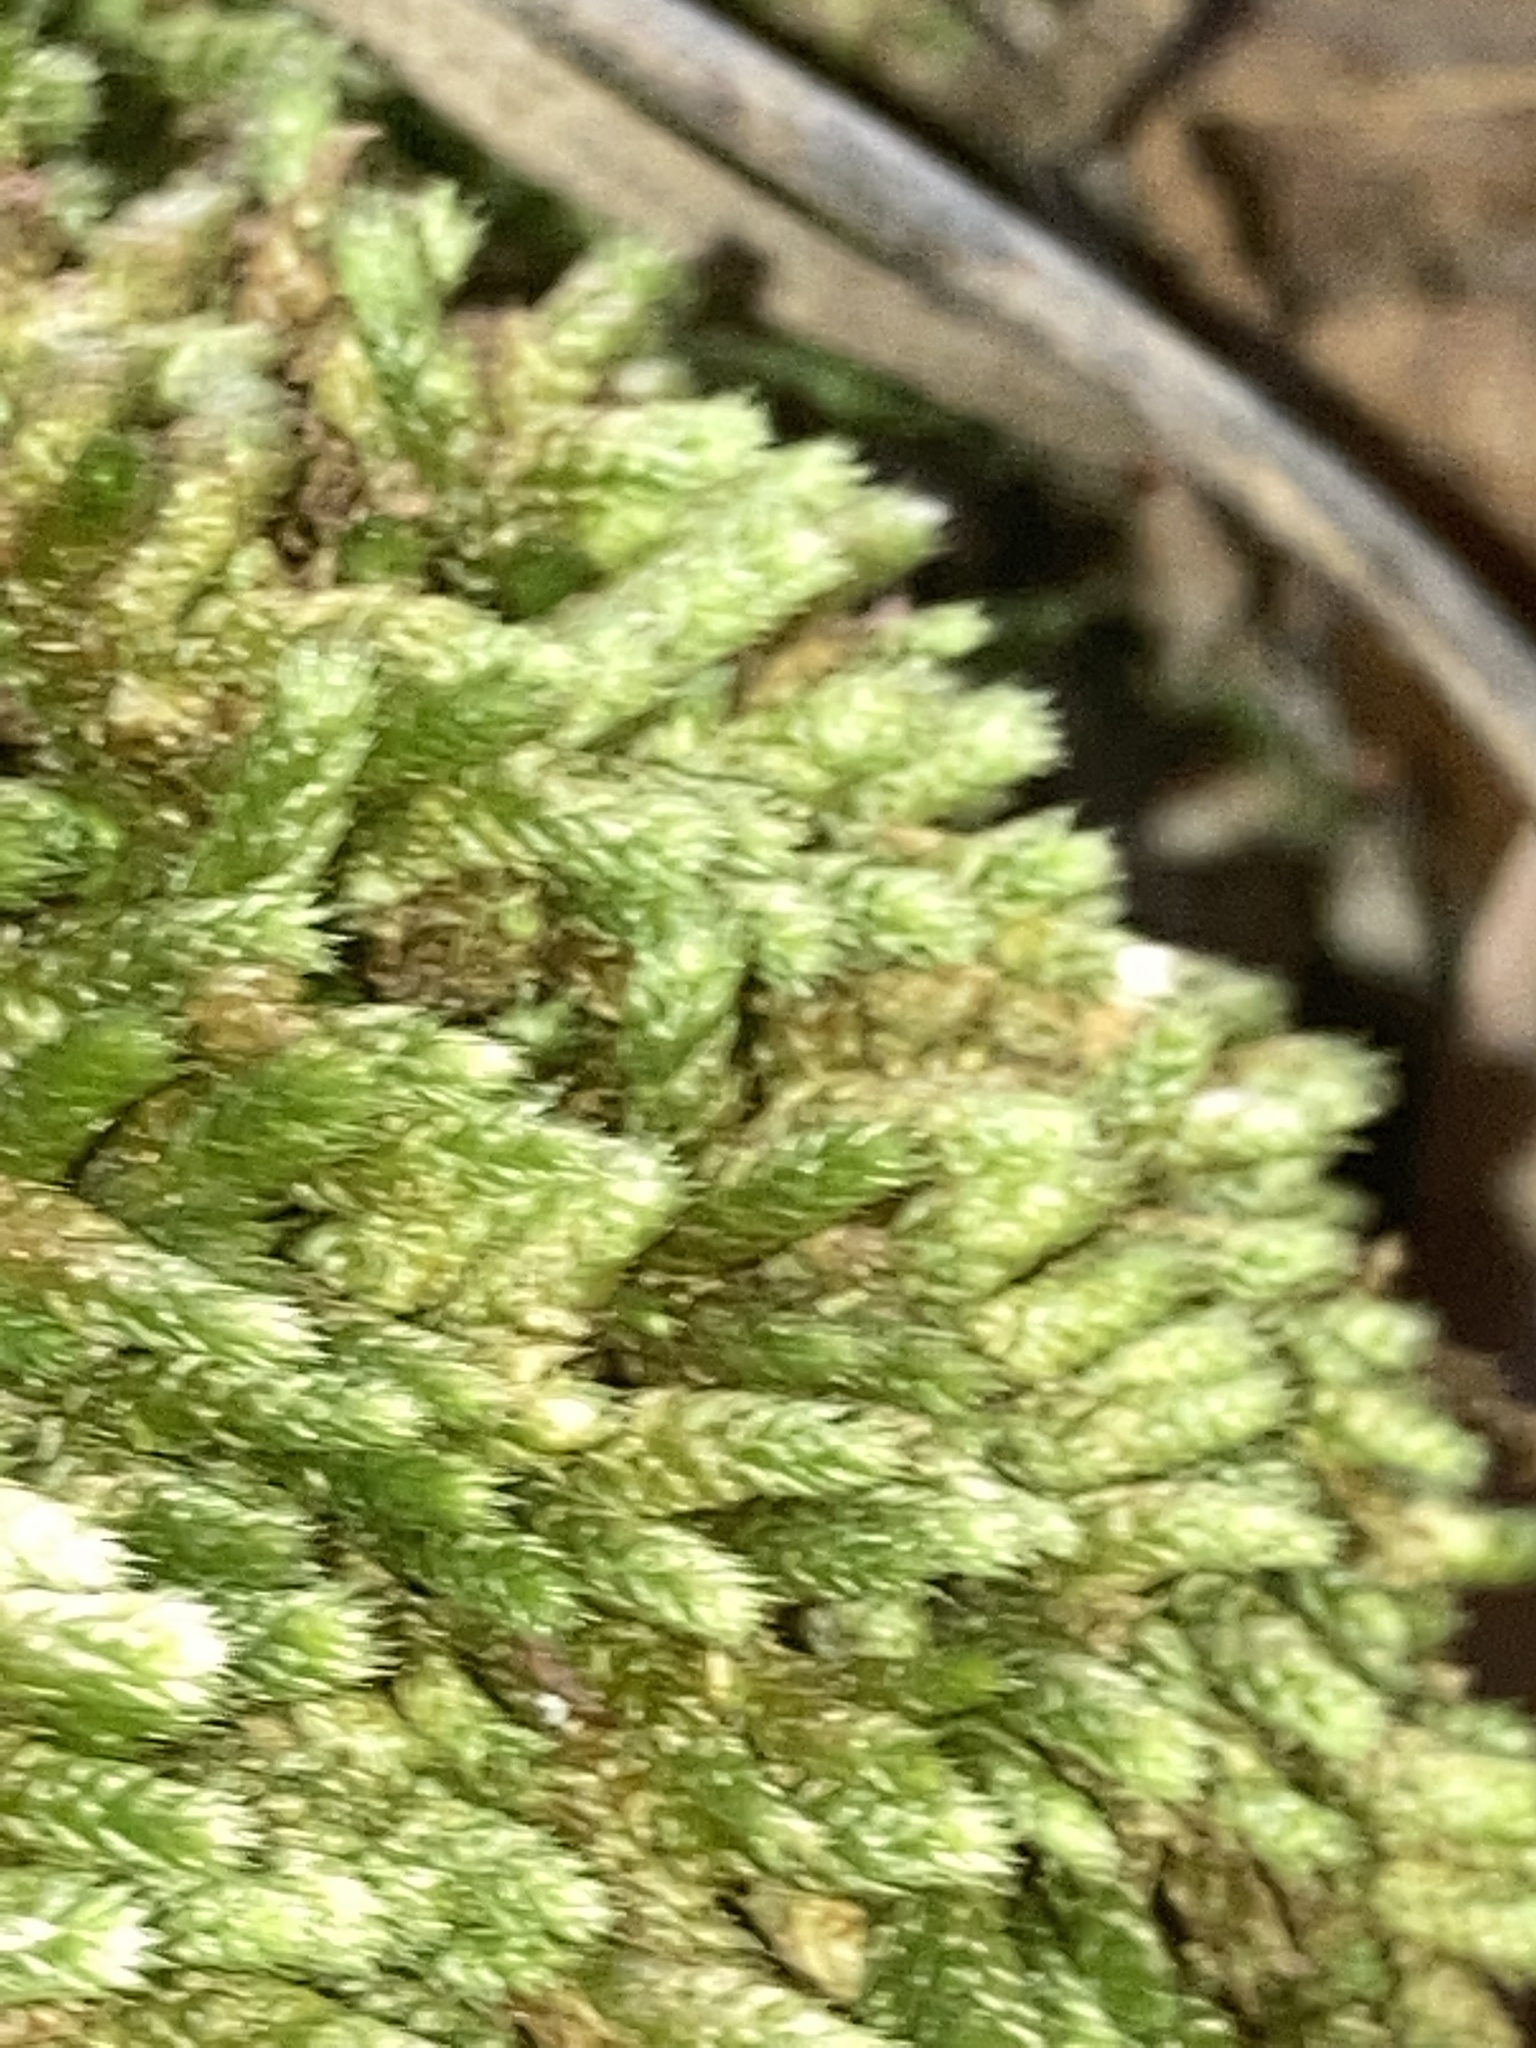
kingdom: Plantae
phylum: Bryophyta
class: Bryopsida
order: Hypnales
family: Brachytheciaceae
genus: Bryoandersonia
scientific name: Bryoandersonia illecebra
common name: Spoon-leaved moss
